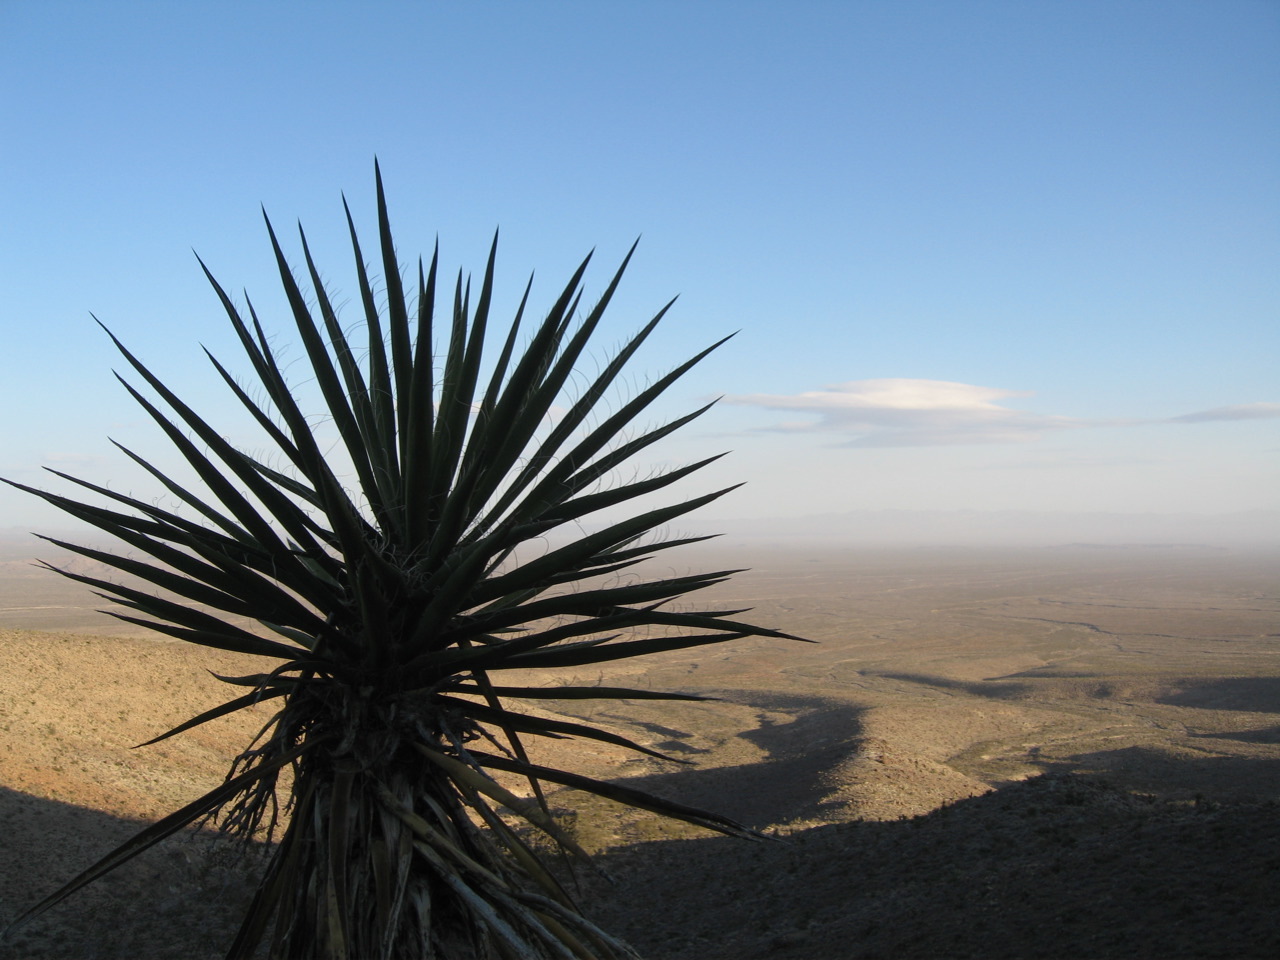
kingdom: Plantae
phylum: Tracheophyta
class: Liliopsida
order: Asparagales
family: Asparagaceae
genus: Yucca
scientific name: Yucca schidigera
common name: Mojave yucca
